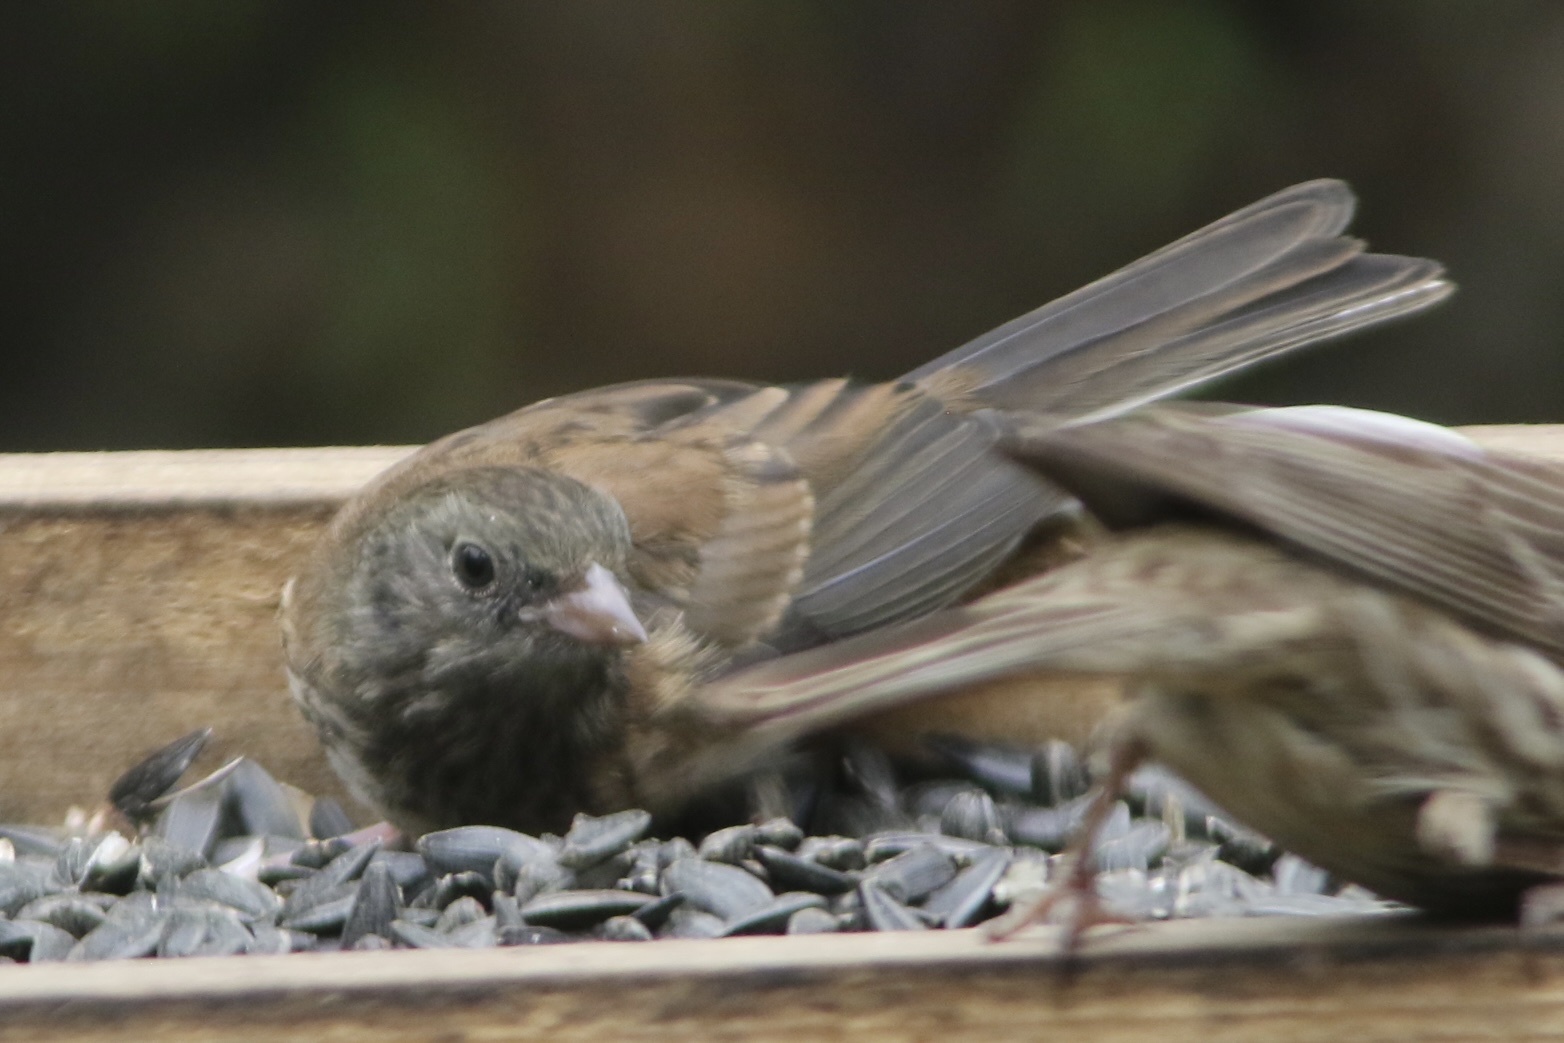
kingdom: Animalia
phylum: Chordata
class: Aves
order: Passeriformes
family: Passerellidae
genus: Junco
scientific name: Junco hyemalis
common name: Dark-eyed junco
